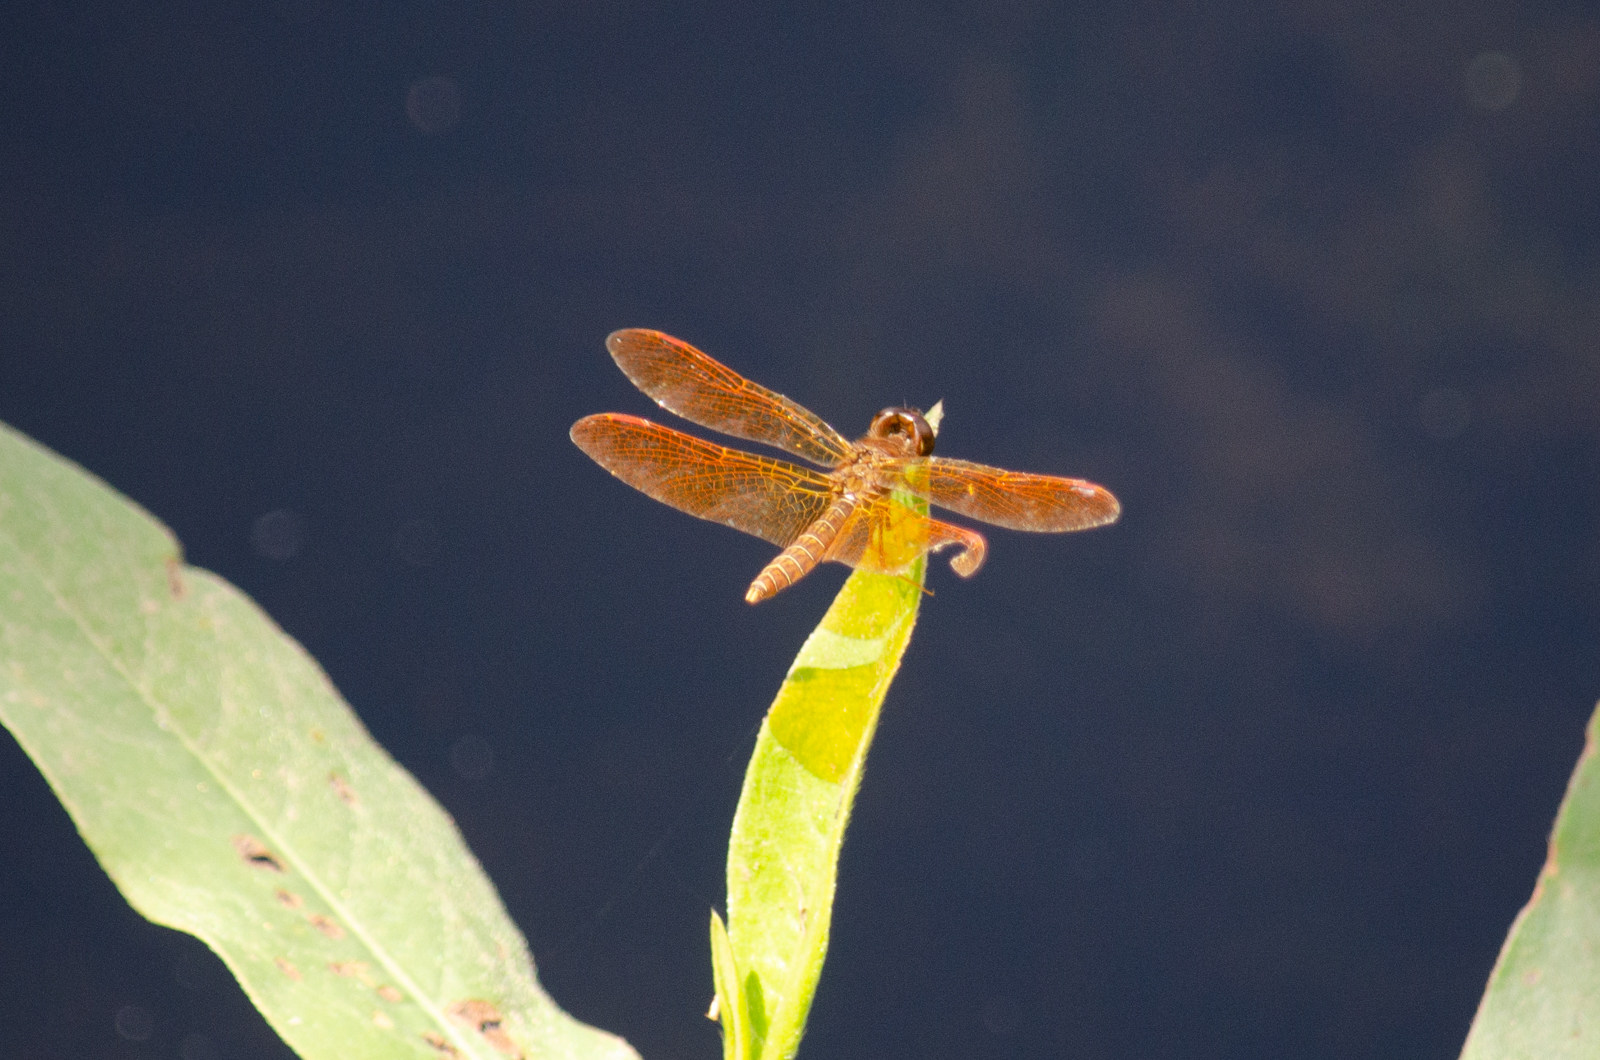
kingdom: Animalia
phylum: Arthropoda
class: Insecta
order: Odonata
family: Libellulidae
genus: Perithemis
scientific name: Perithemis tenera
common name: Eastern amberwing
